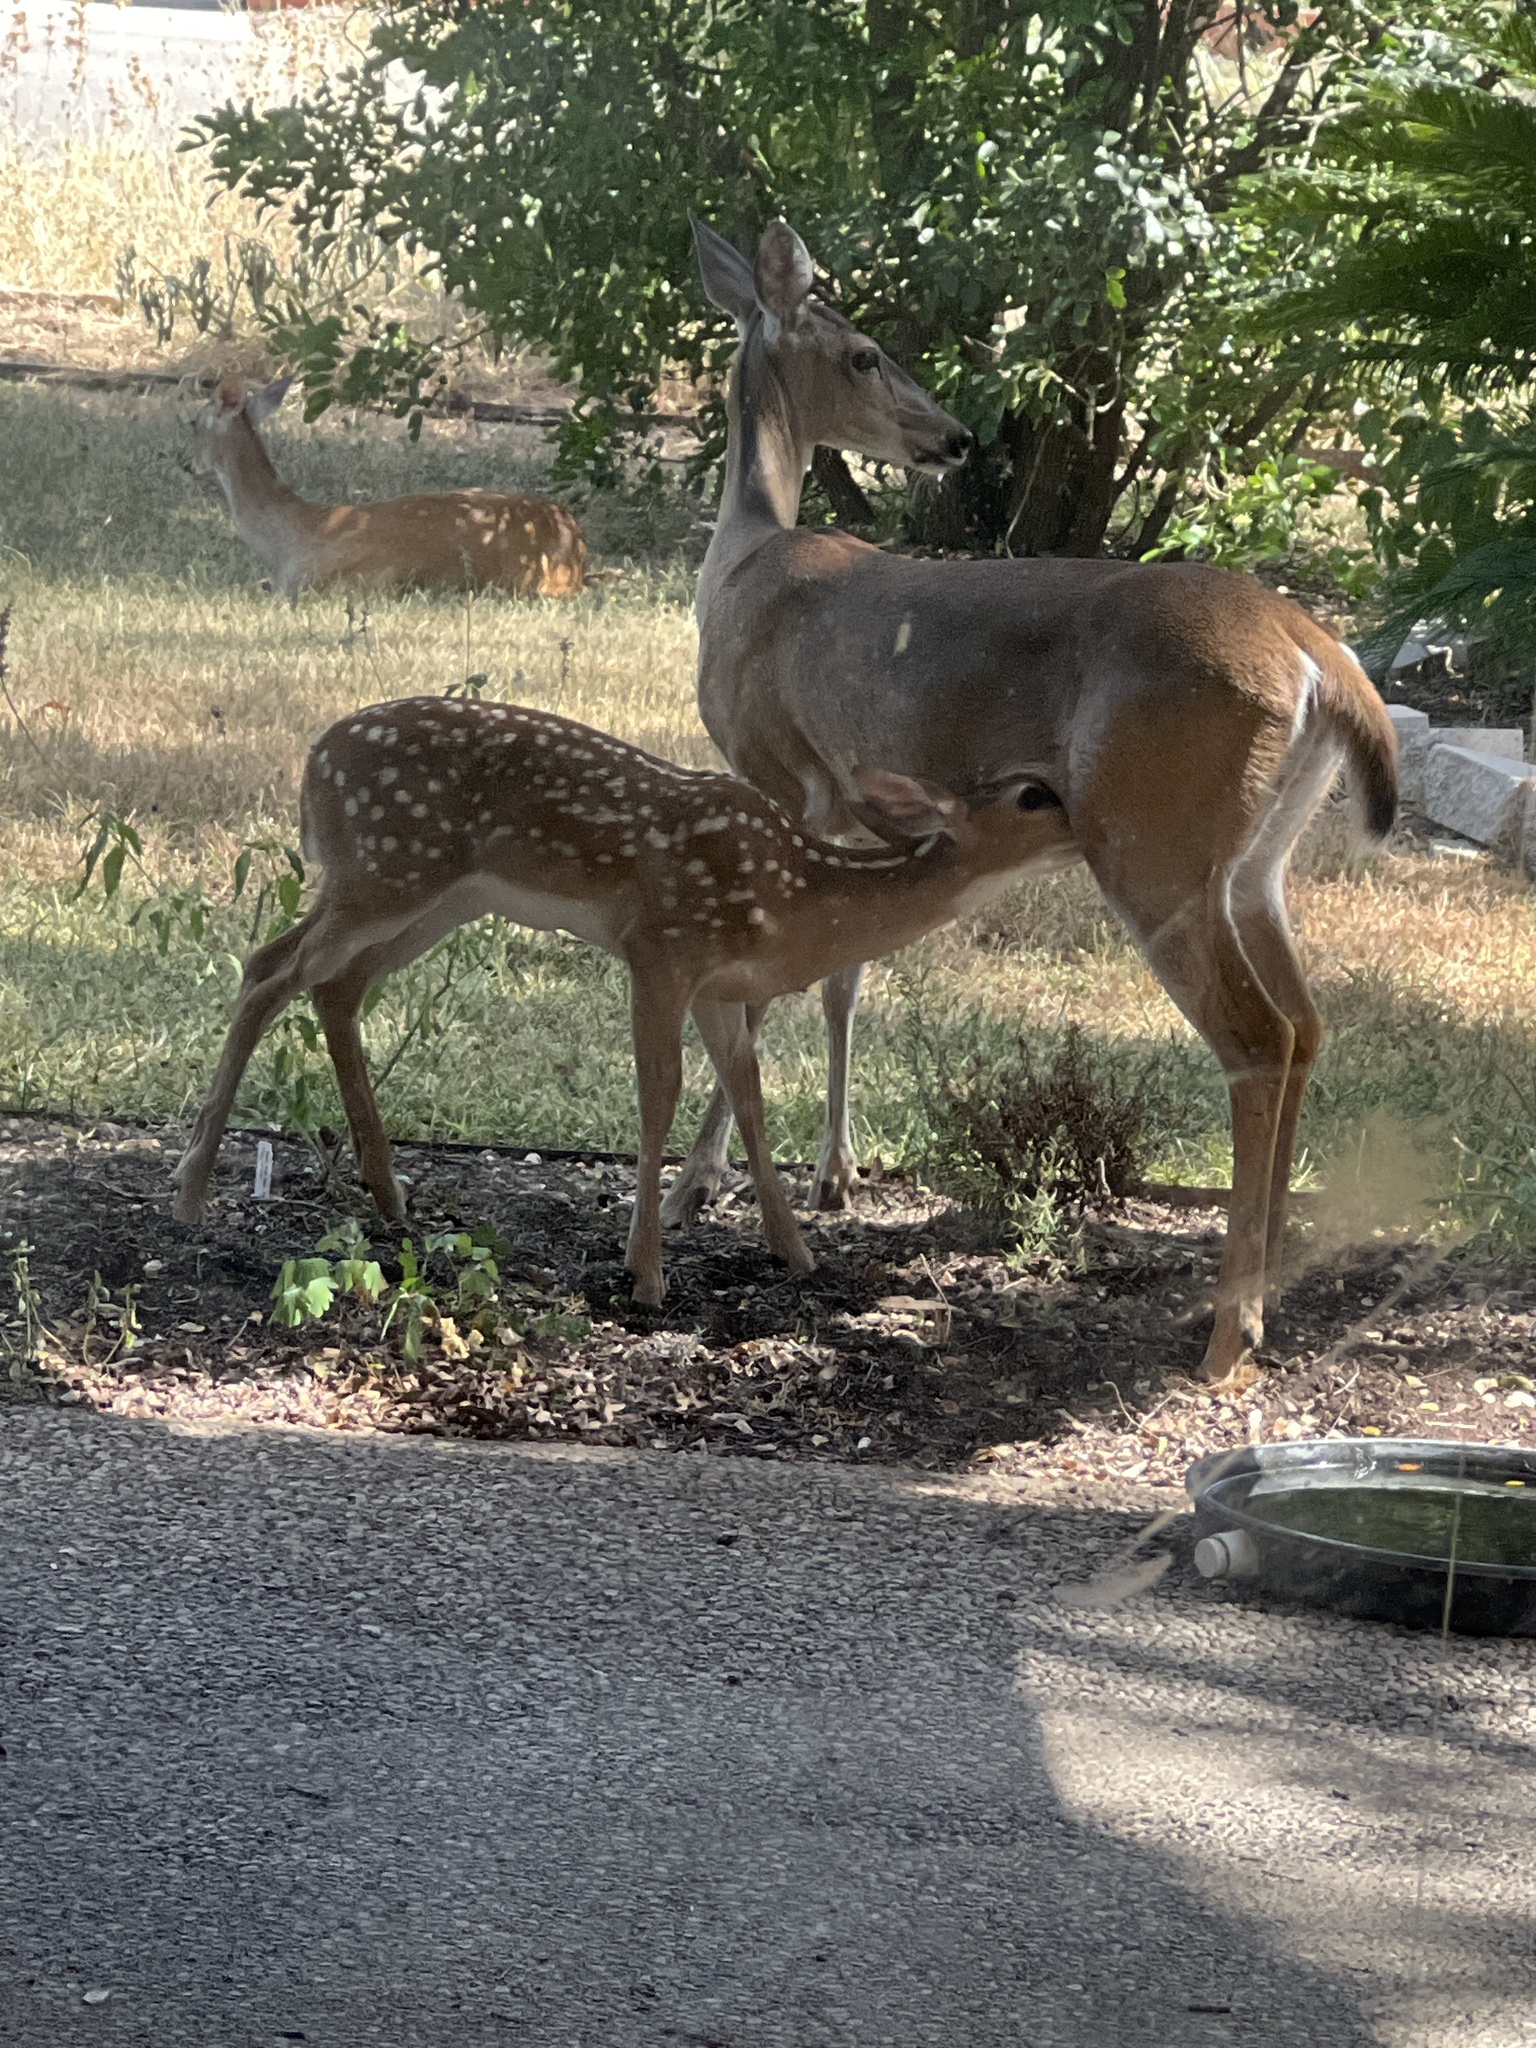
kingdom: Animalia
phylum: Chordata
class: Mammalia
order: Artiodactyla
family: Cervidae
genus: Odocoileus
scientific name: Odocoileus virginianus
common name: White-tailed deer
